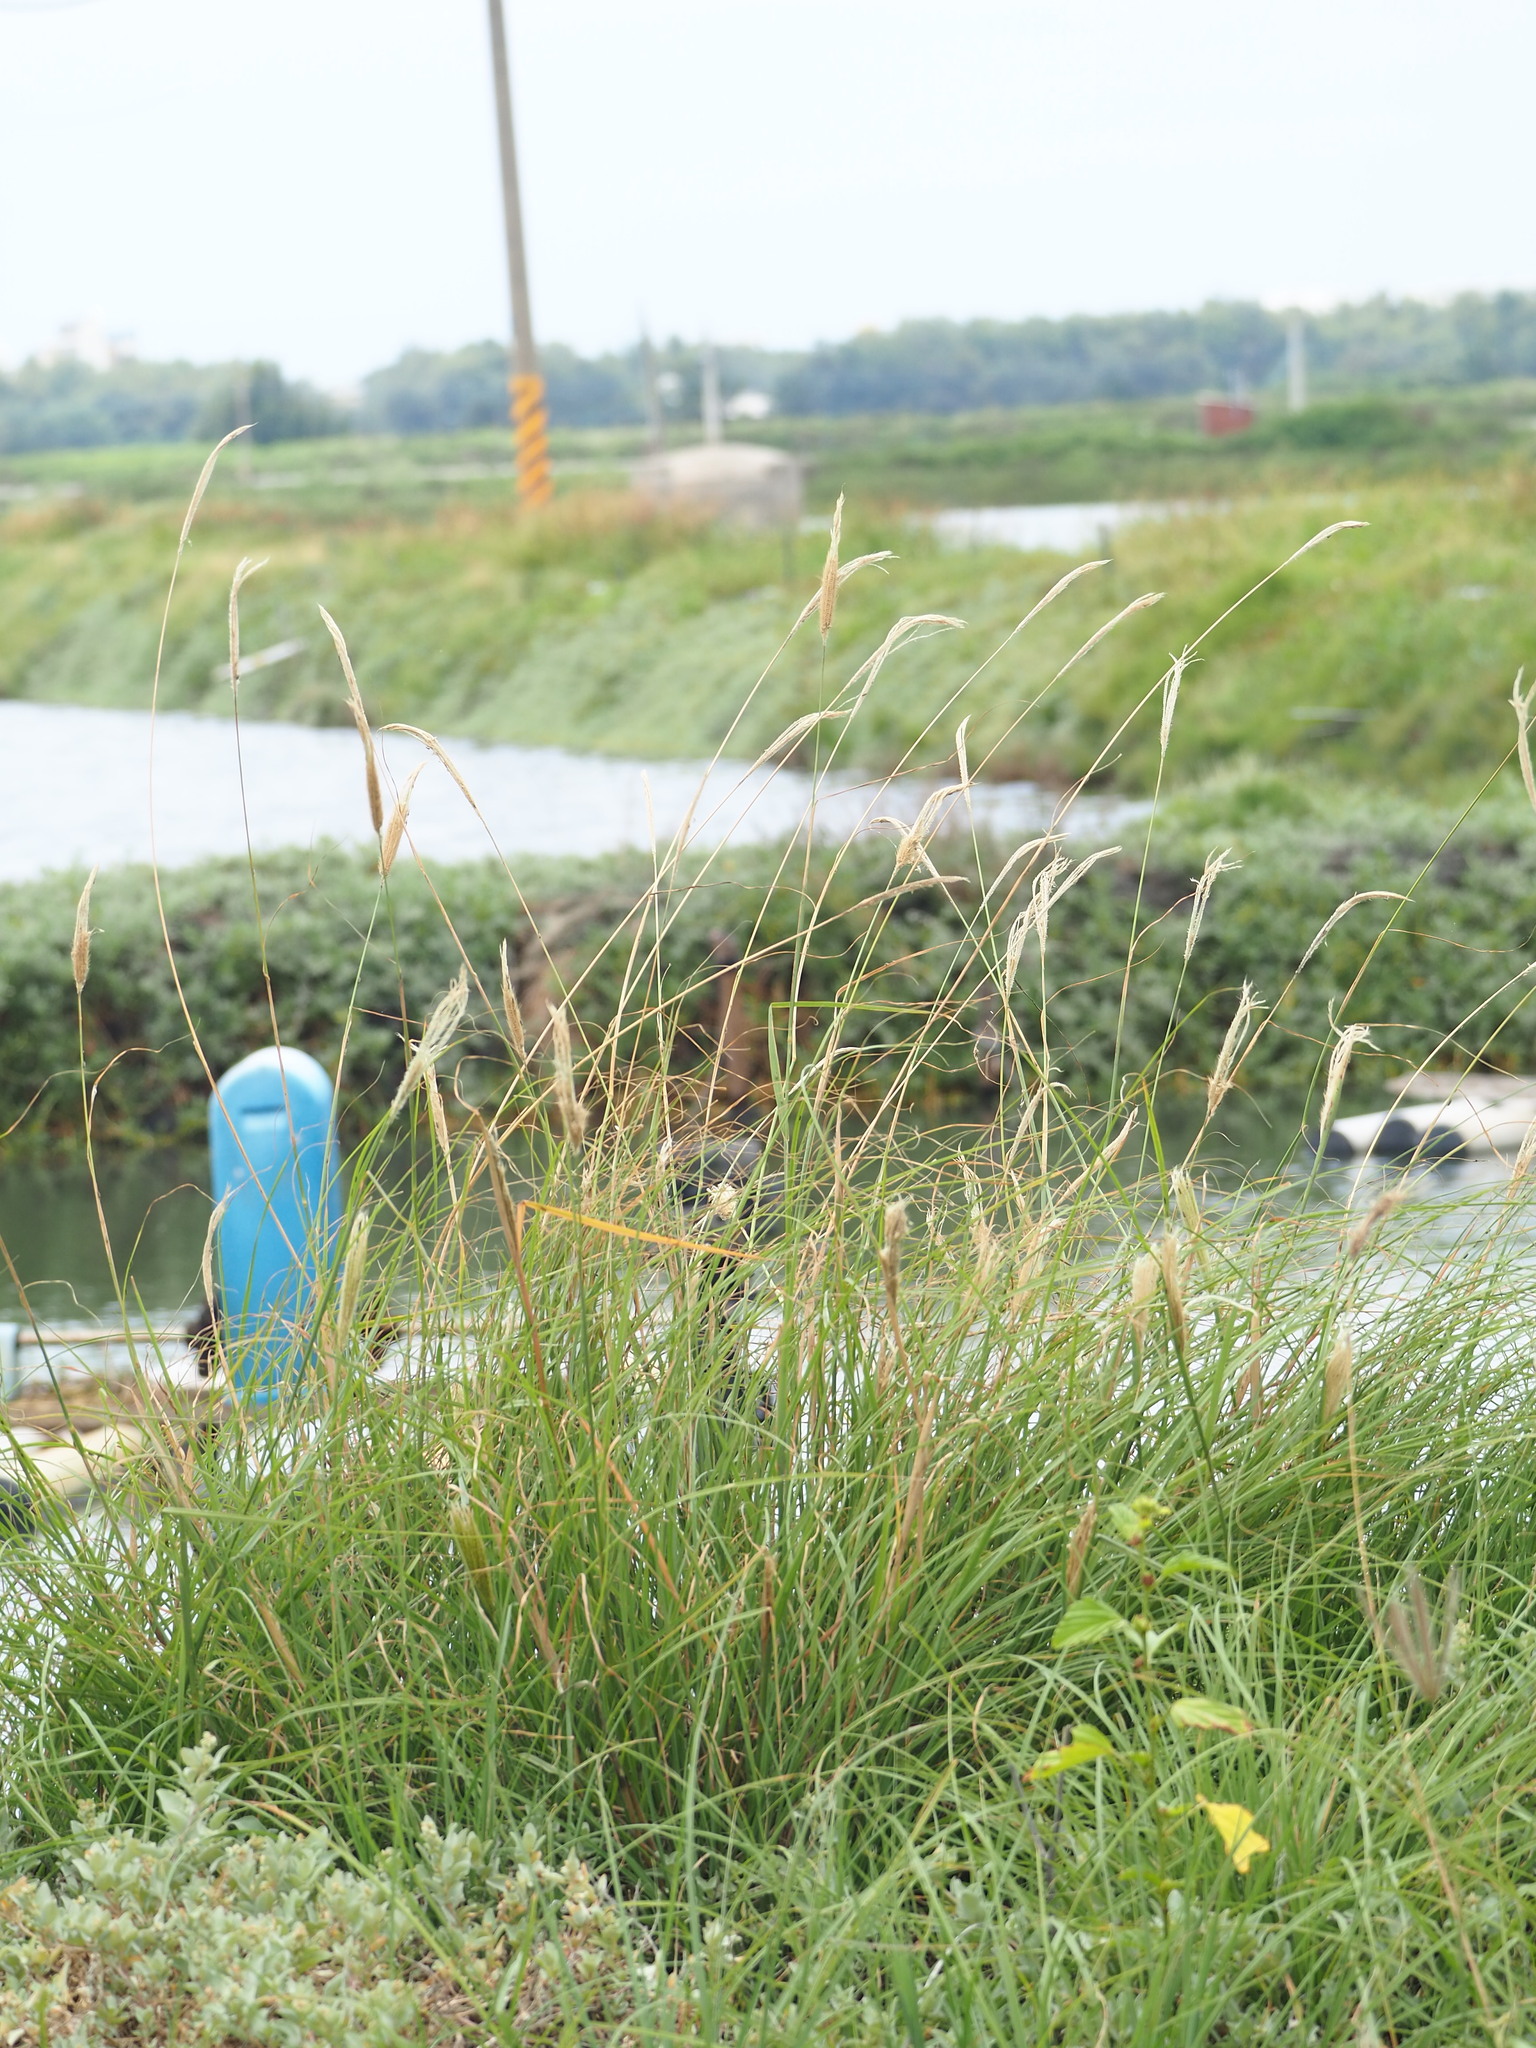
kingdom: Plantae
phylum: Tracheophyta
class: Liliopsida
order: Poales
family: Poaceae
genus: Chloris
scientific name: Chloris formosana
